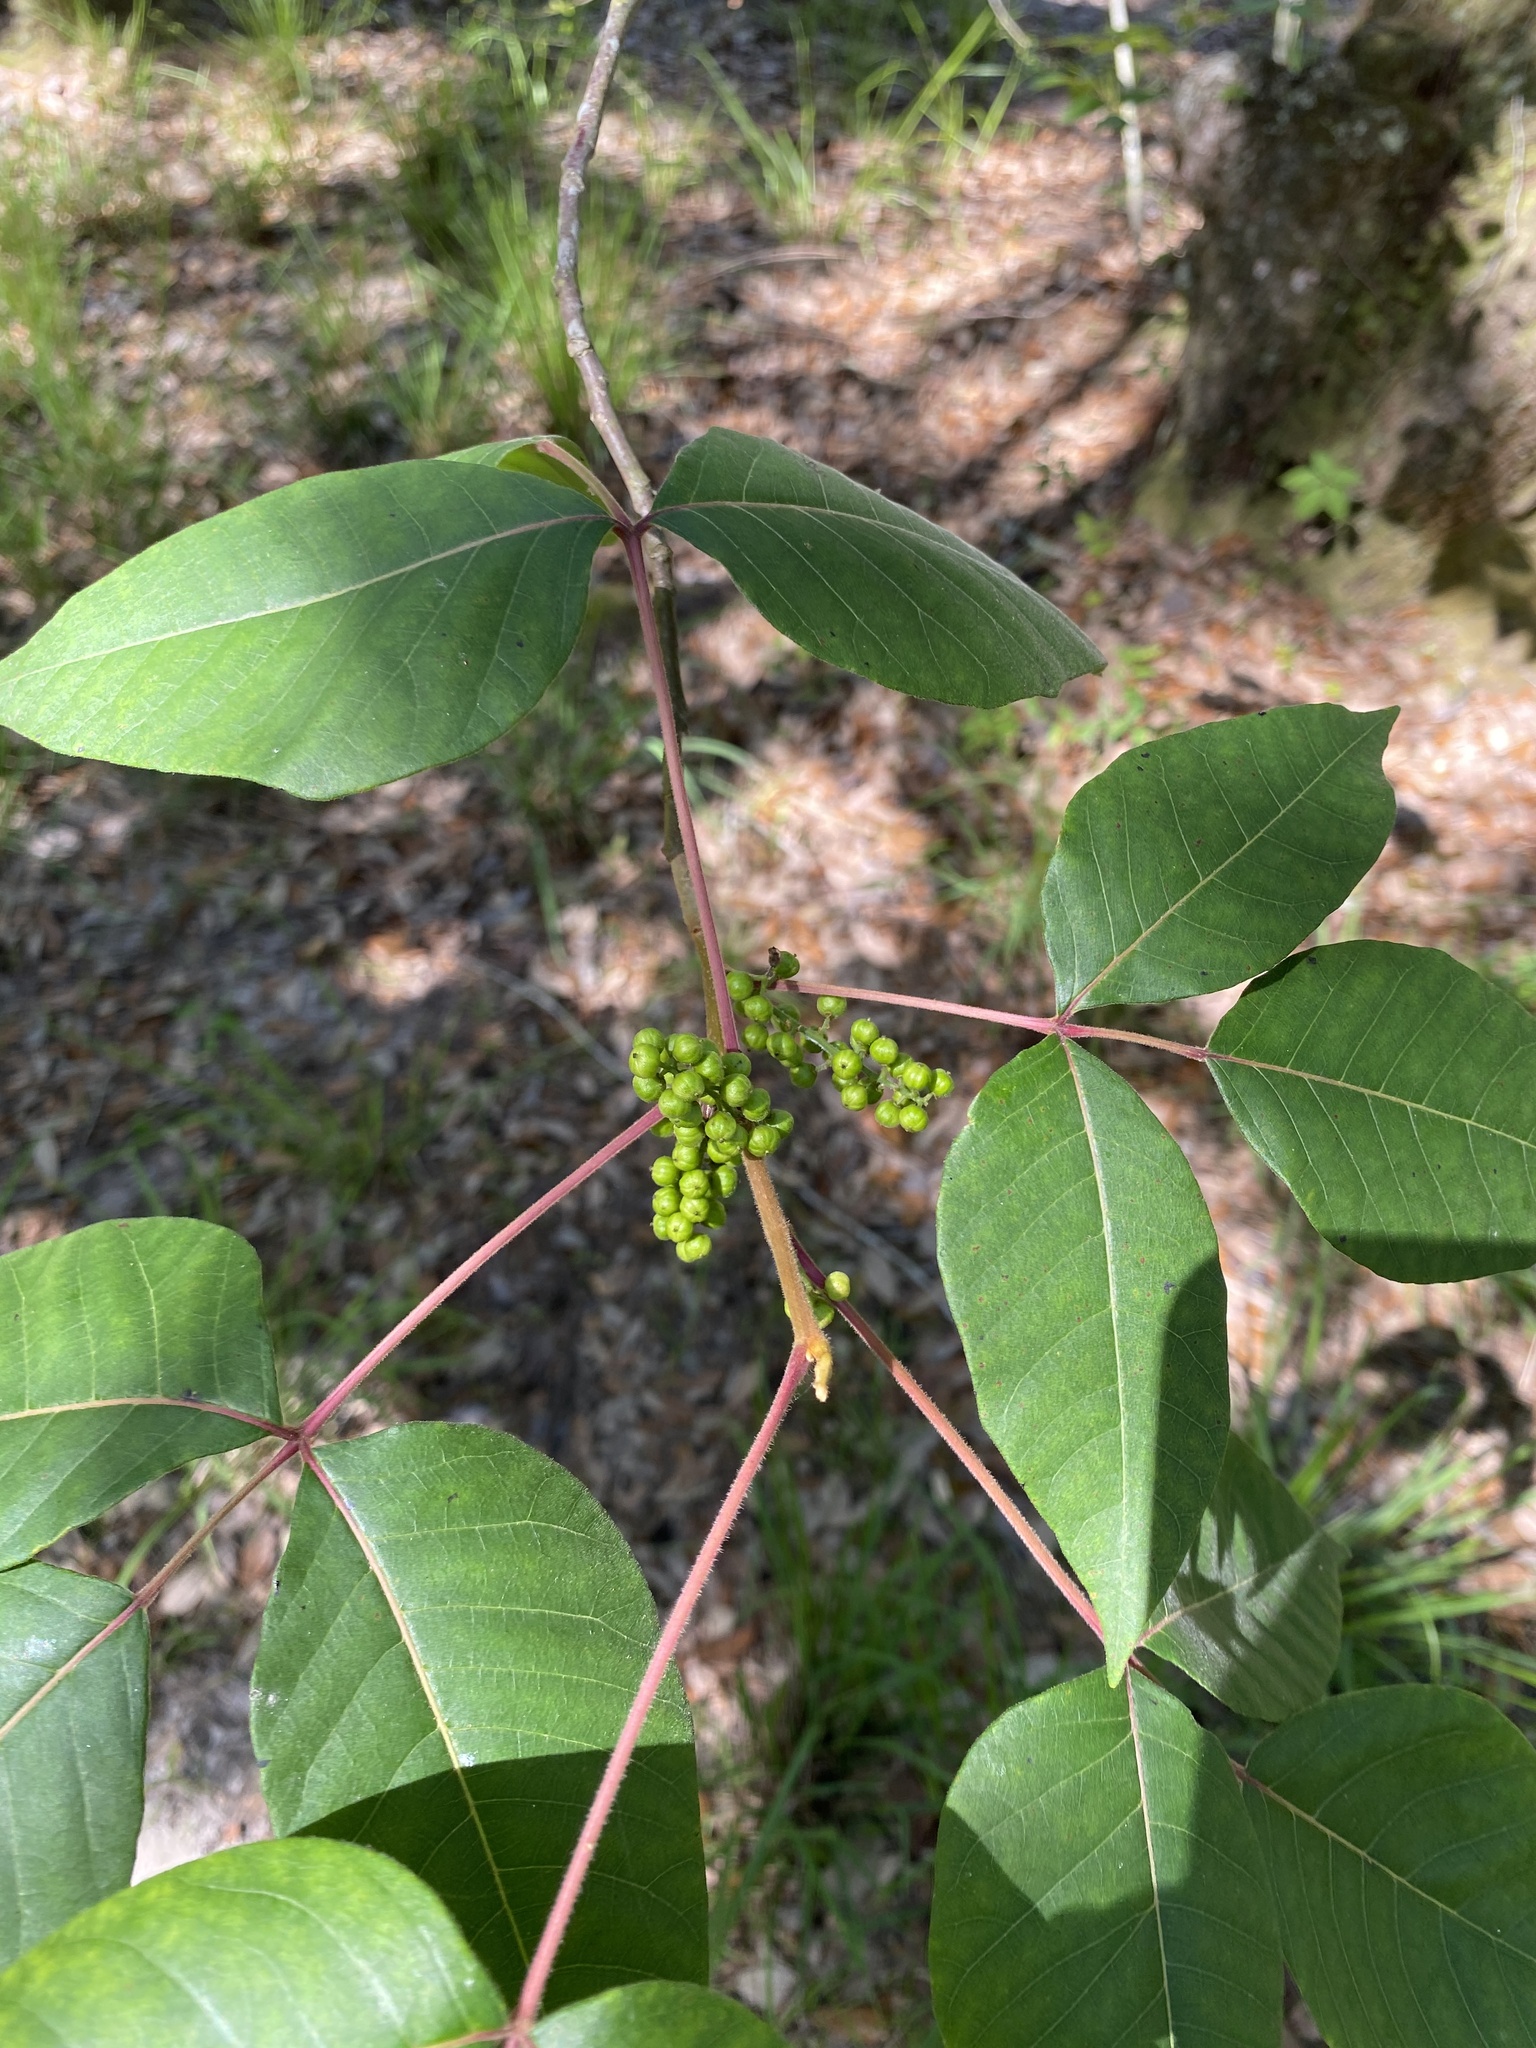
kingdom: Plantae
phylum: Tracheophyta
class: Magnoliopsida
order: Sapindales
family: Anacardiaceae
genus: Toxicodendron
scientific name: Toxicodendron radicans
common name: Poison ivy
